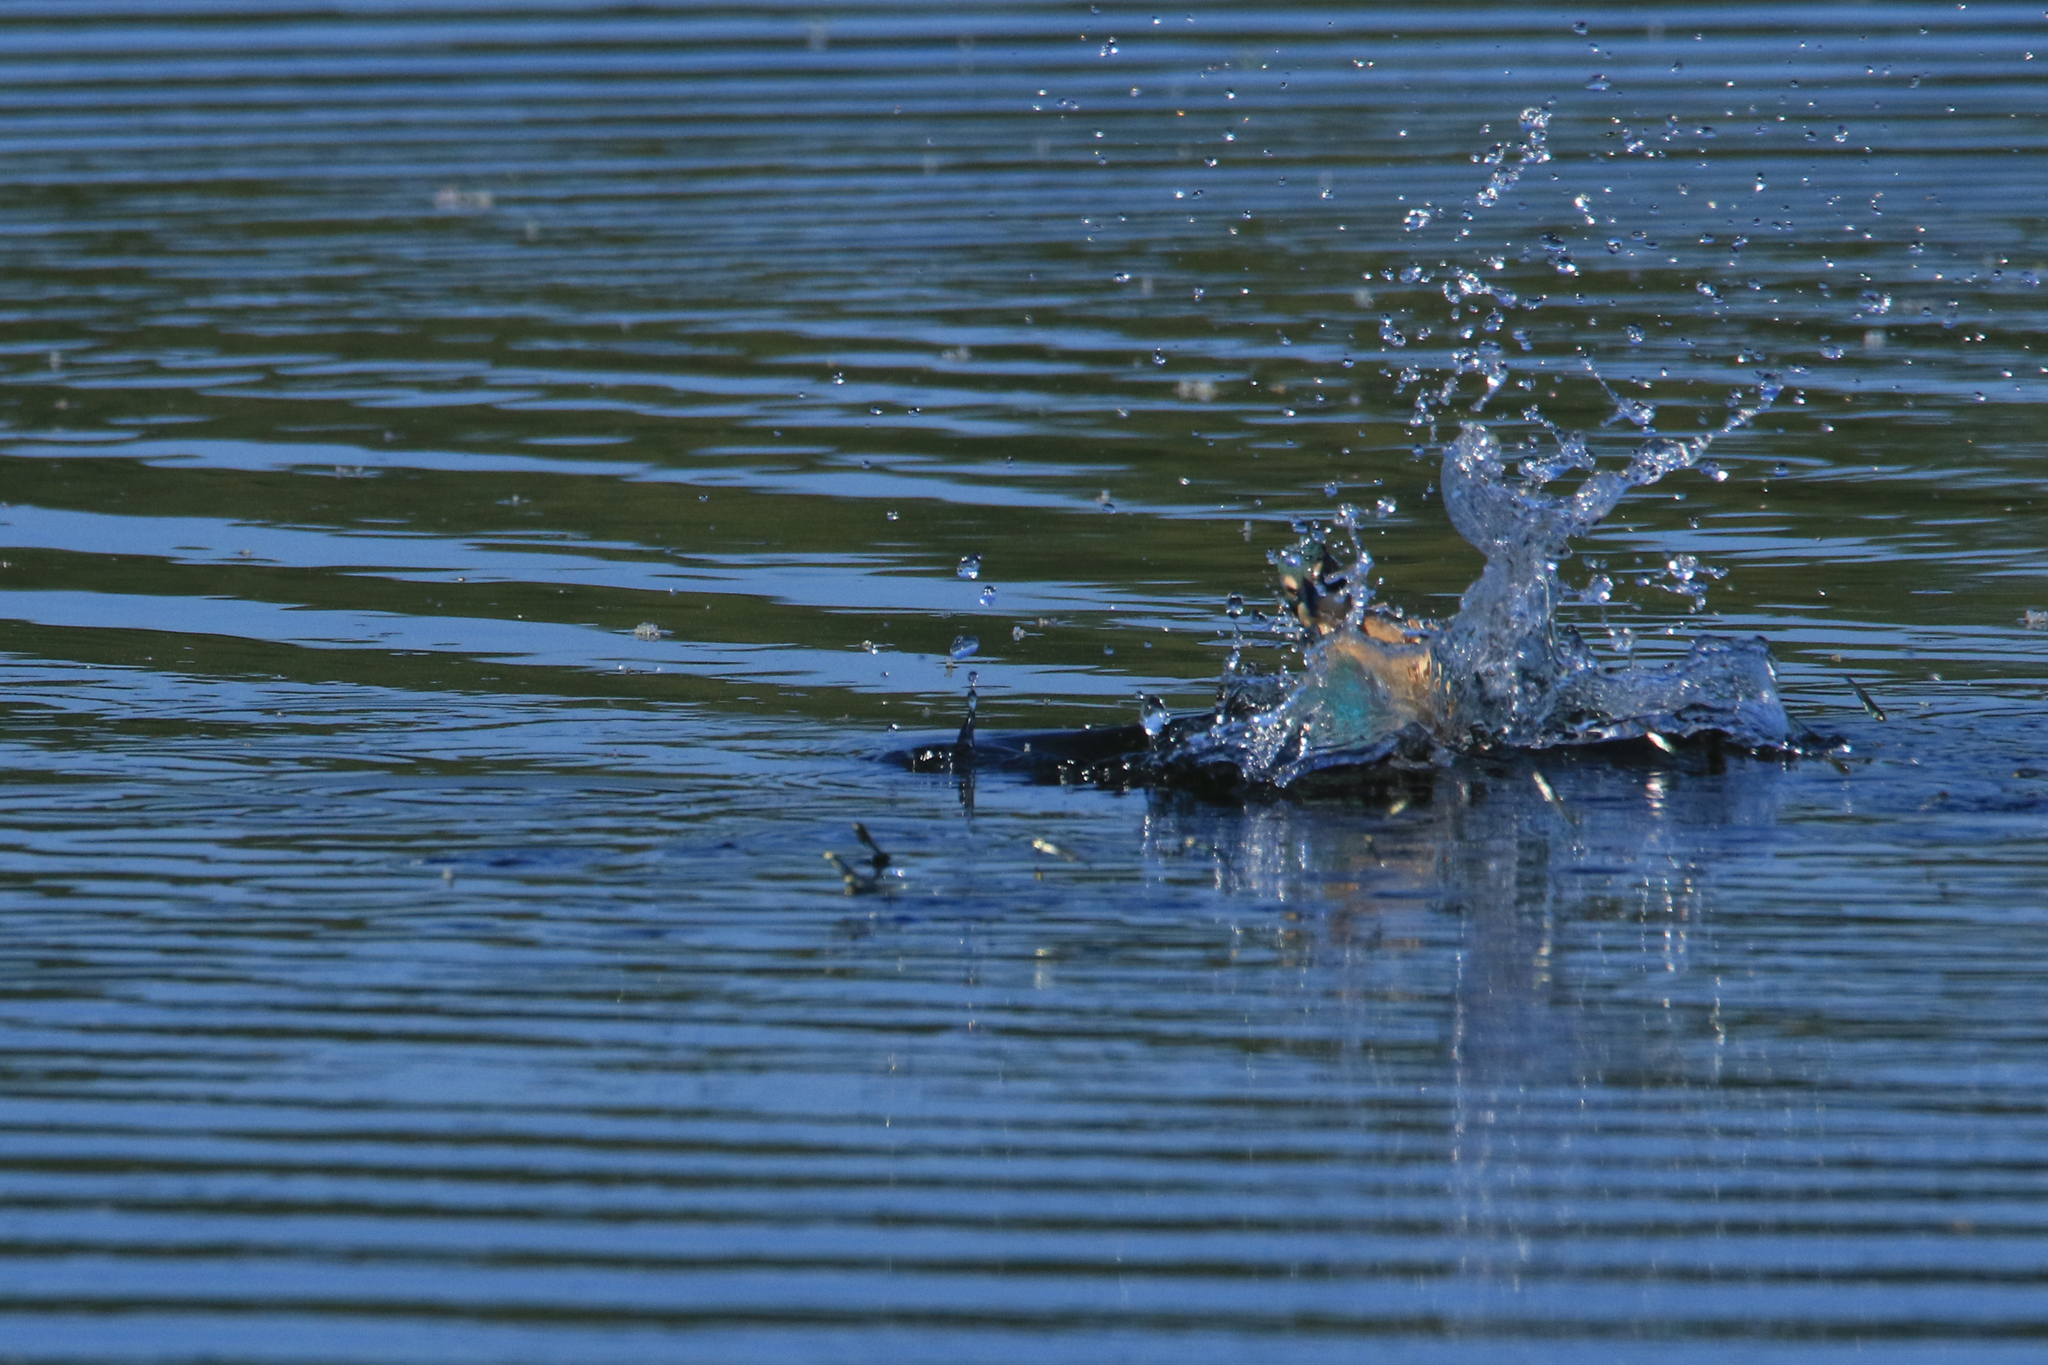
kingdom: Animalia
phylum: Chordata
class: Aves
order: Coraciiformes
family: Alcedinidae
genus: Alcedo
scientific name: Alcedo atthis
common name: Common kingfisher
